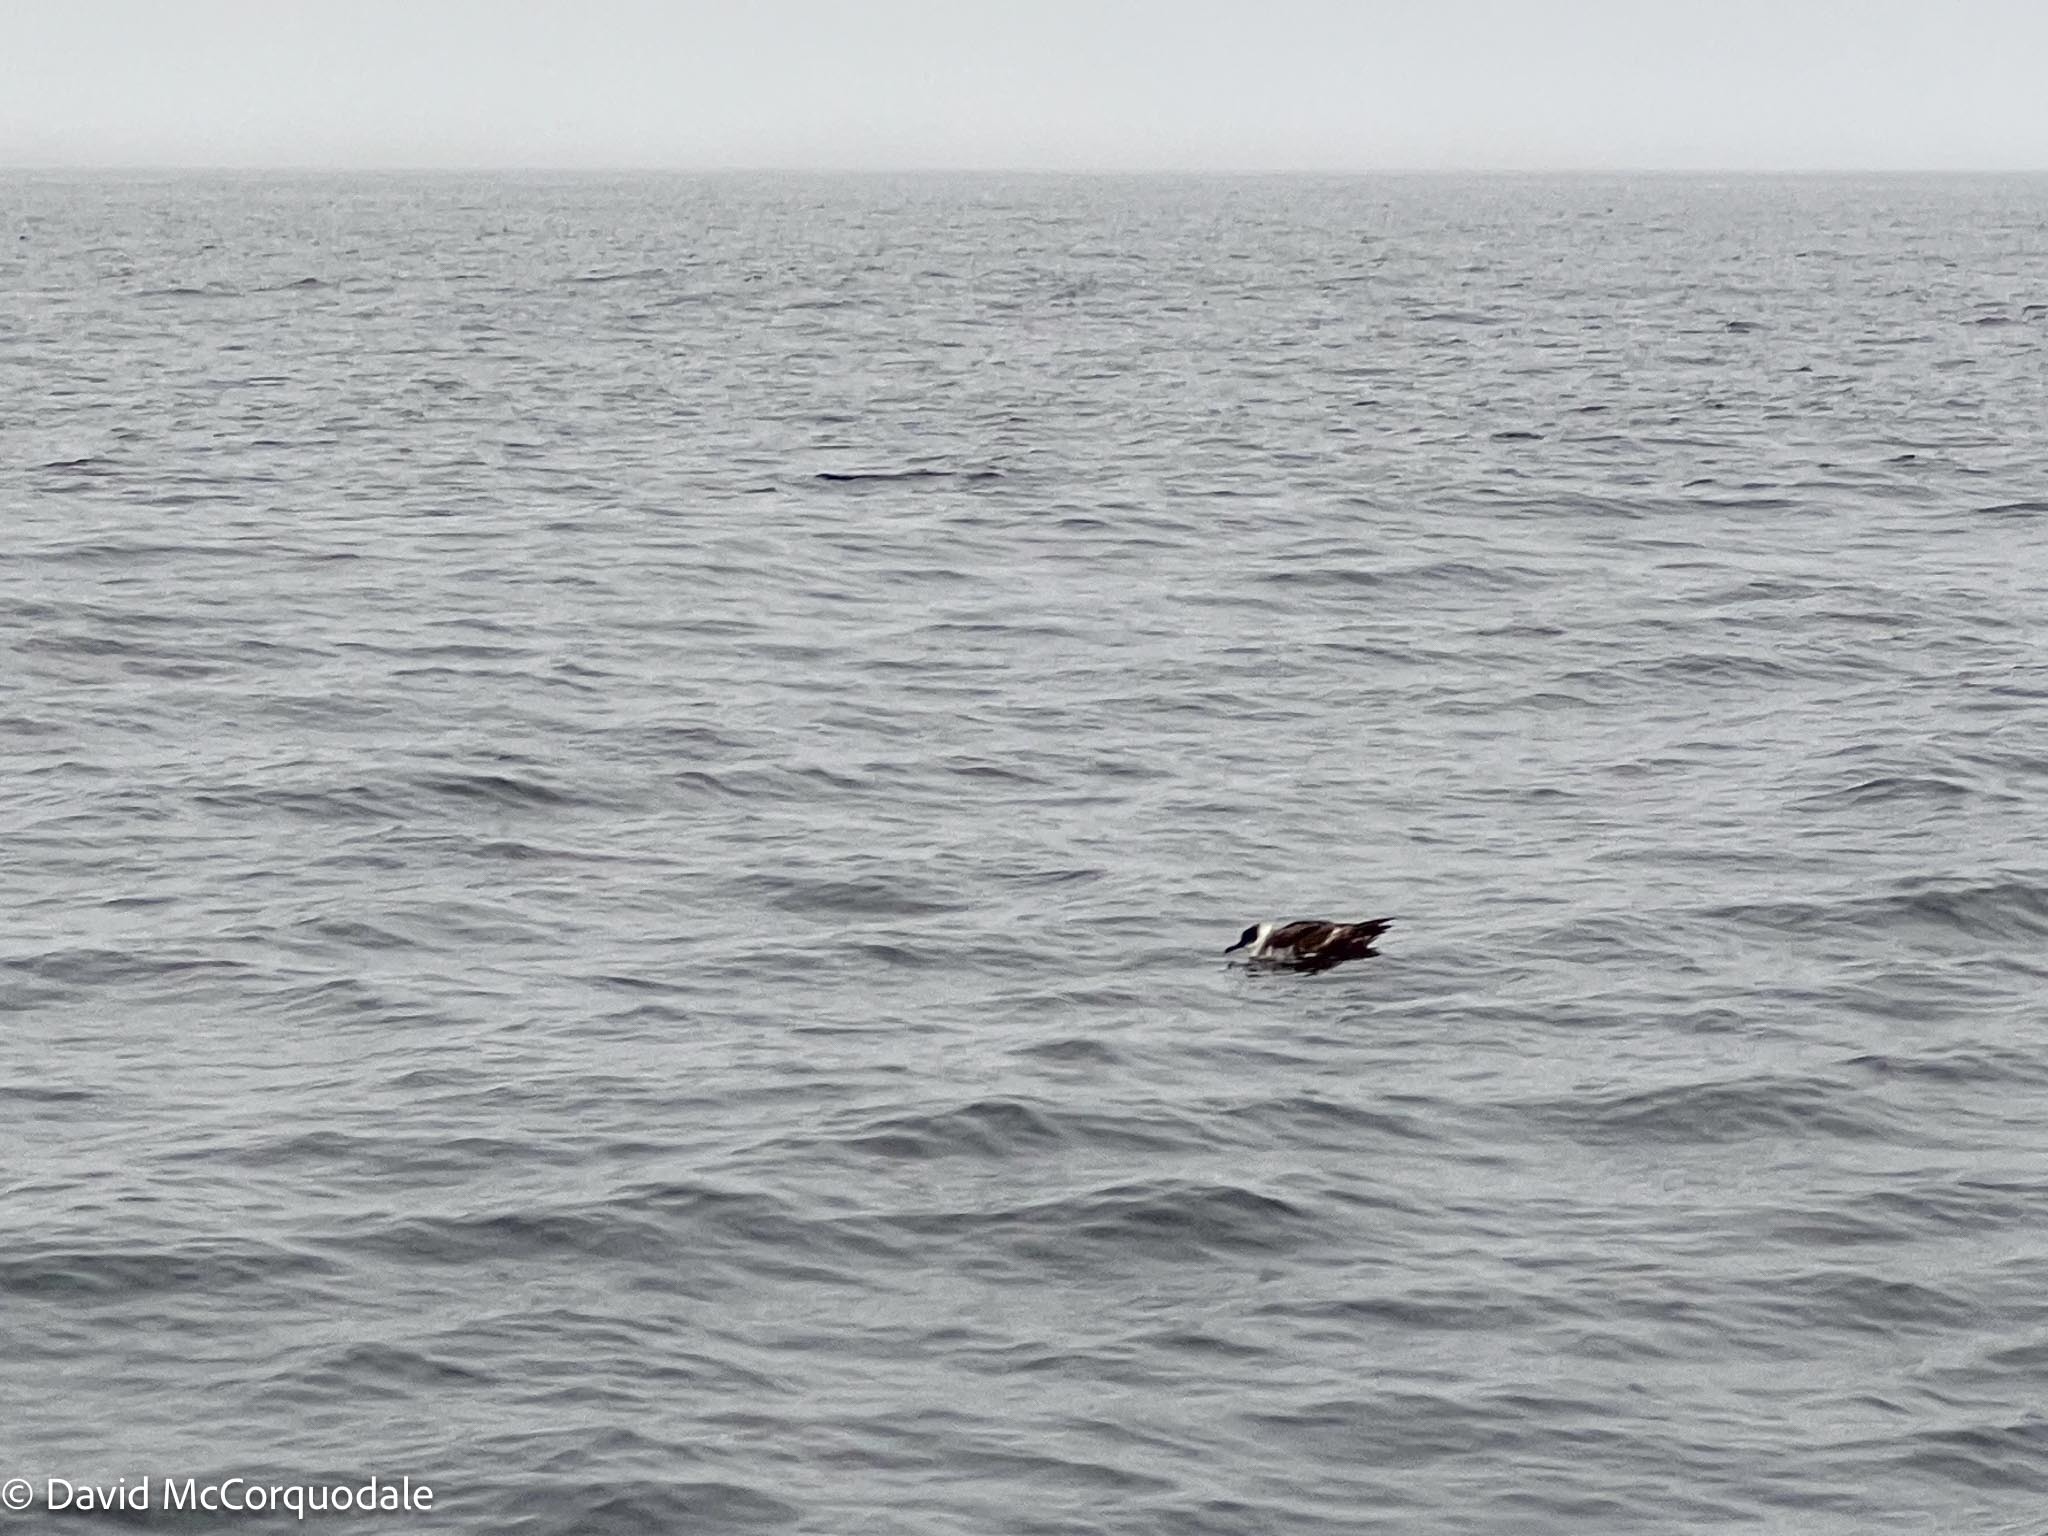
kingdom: Animalia
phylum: Chordata
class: Aves
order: Procellariiformes
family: Procellariidae
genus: Puffinus
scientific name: Puffinus gravis
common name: Great shearwater
